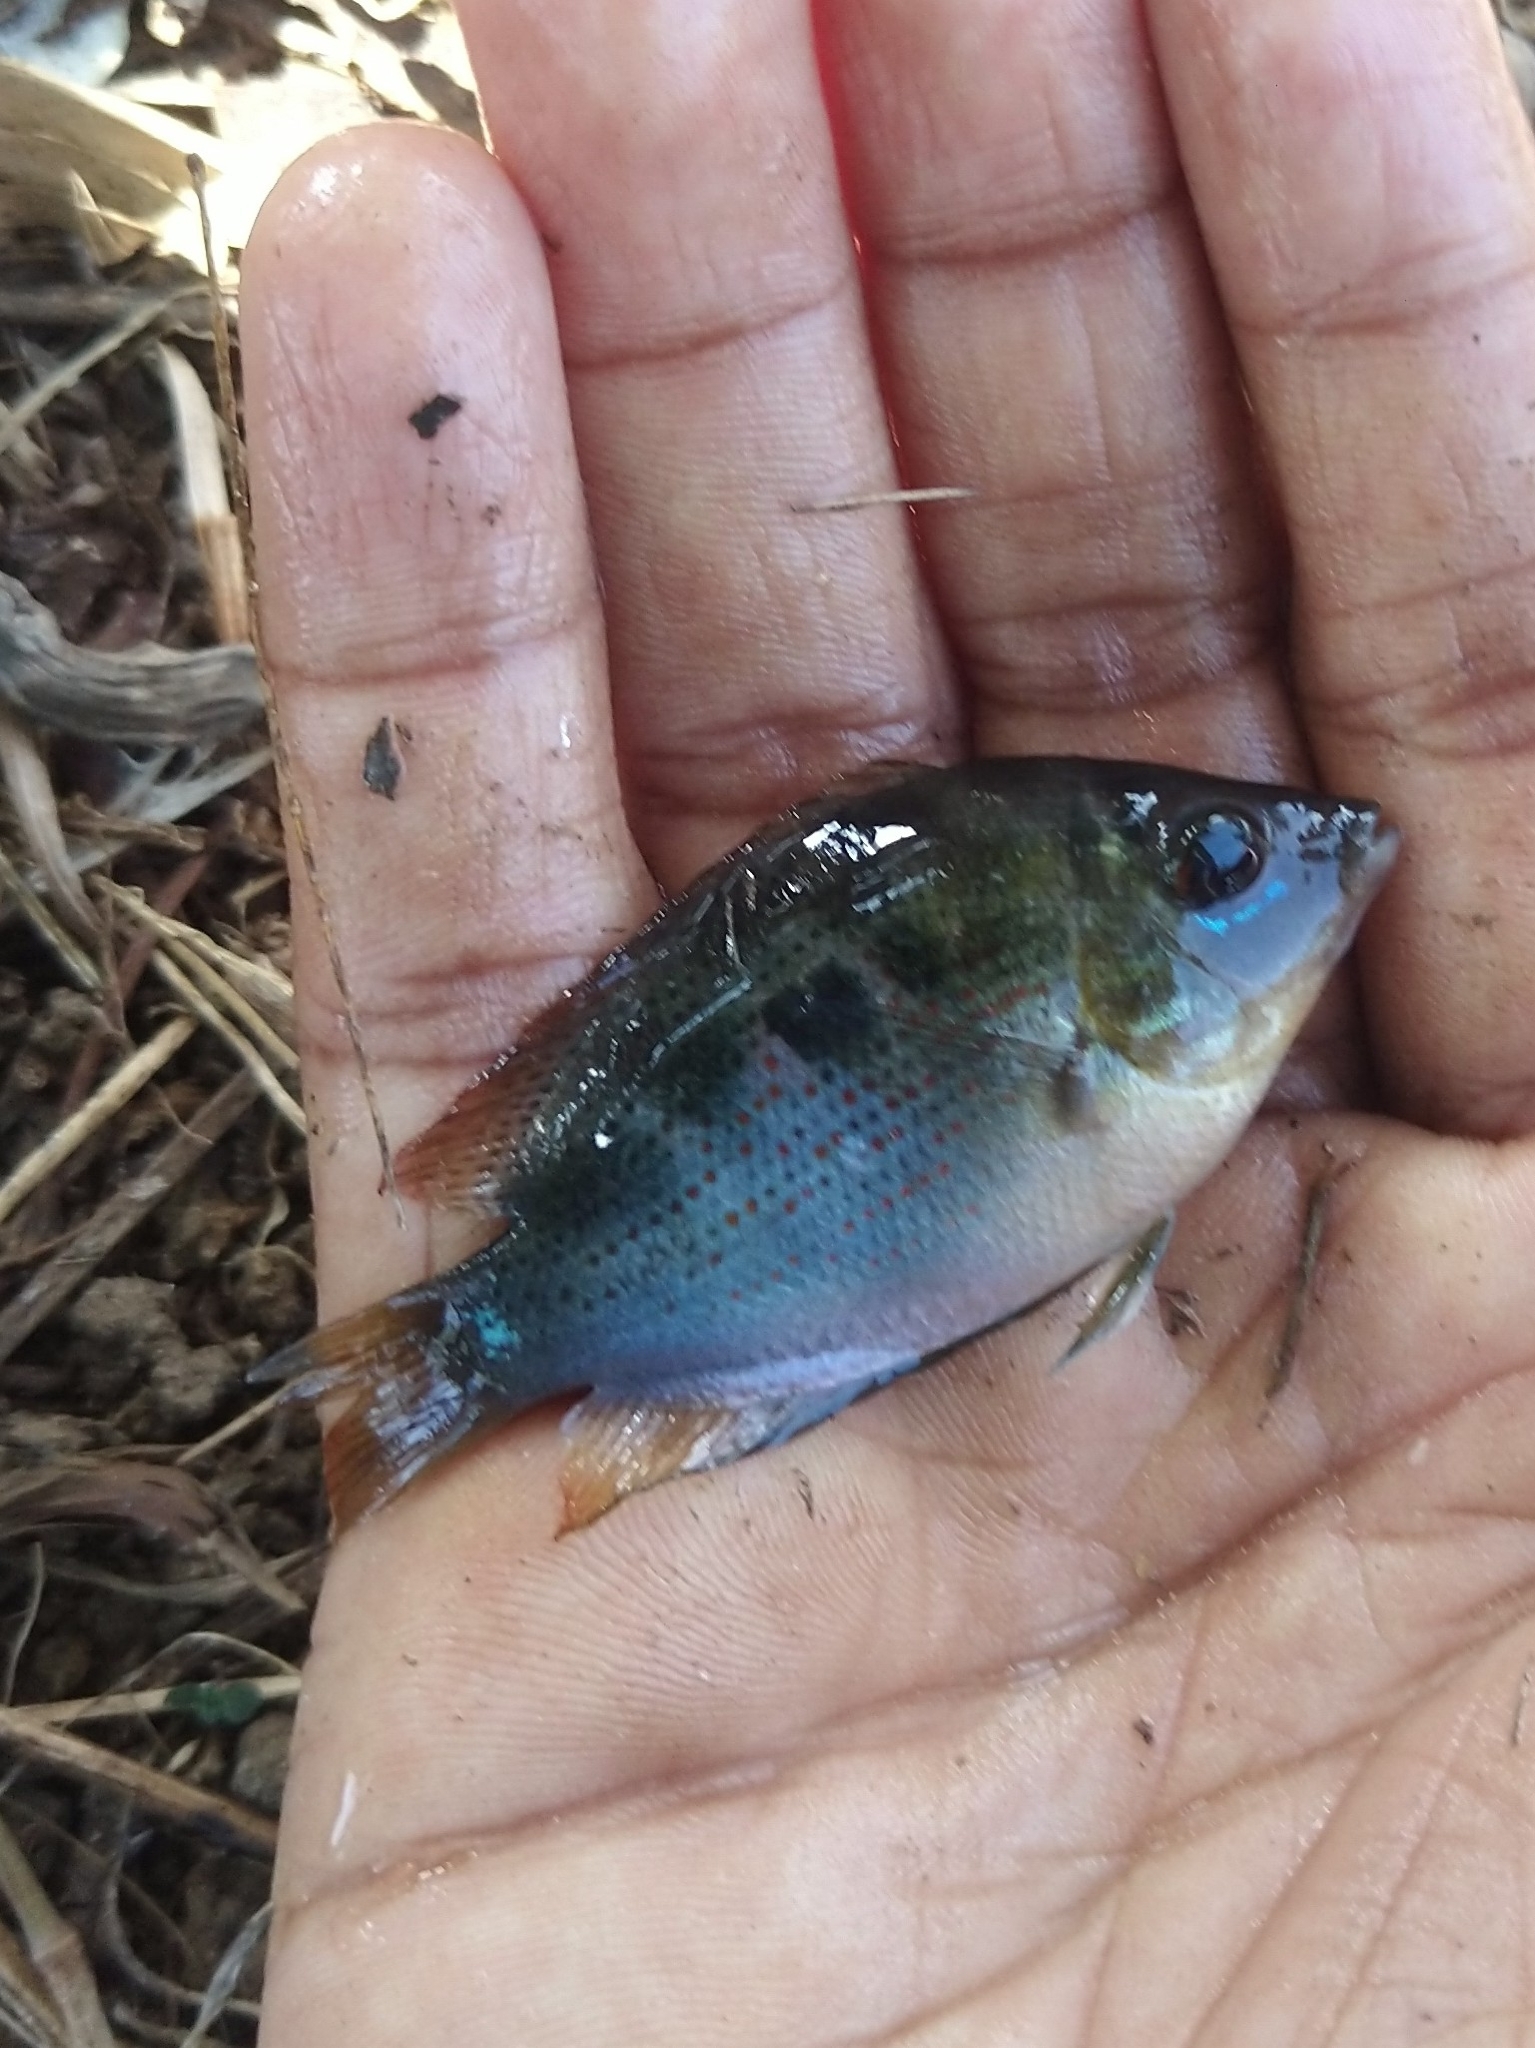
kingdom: Animalia
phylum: Chordata
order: Perciformes
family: Cichlidae
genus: Etroplus
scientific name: Etroplus maculatus
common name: Orange chromide
